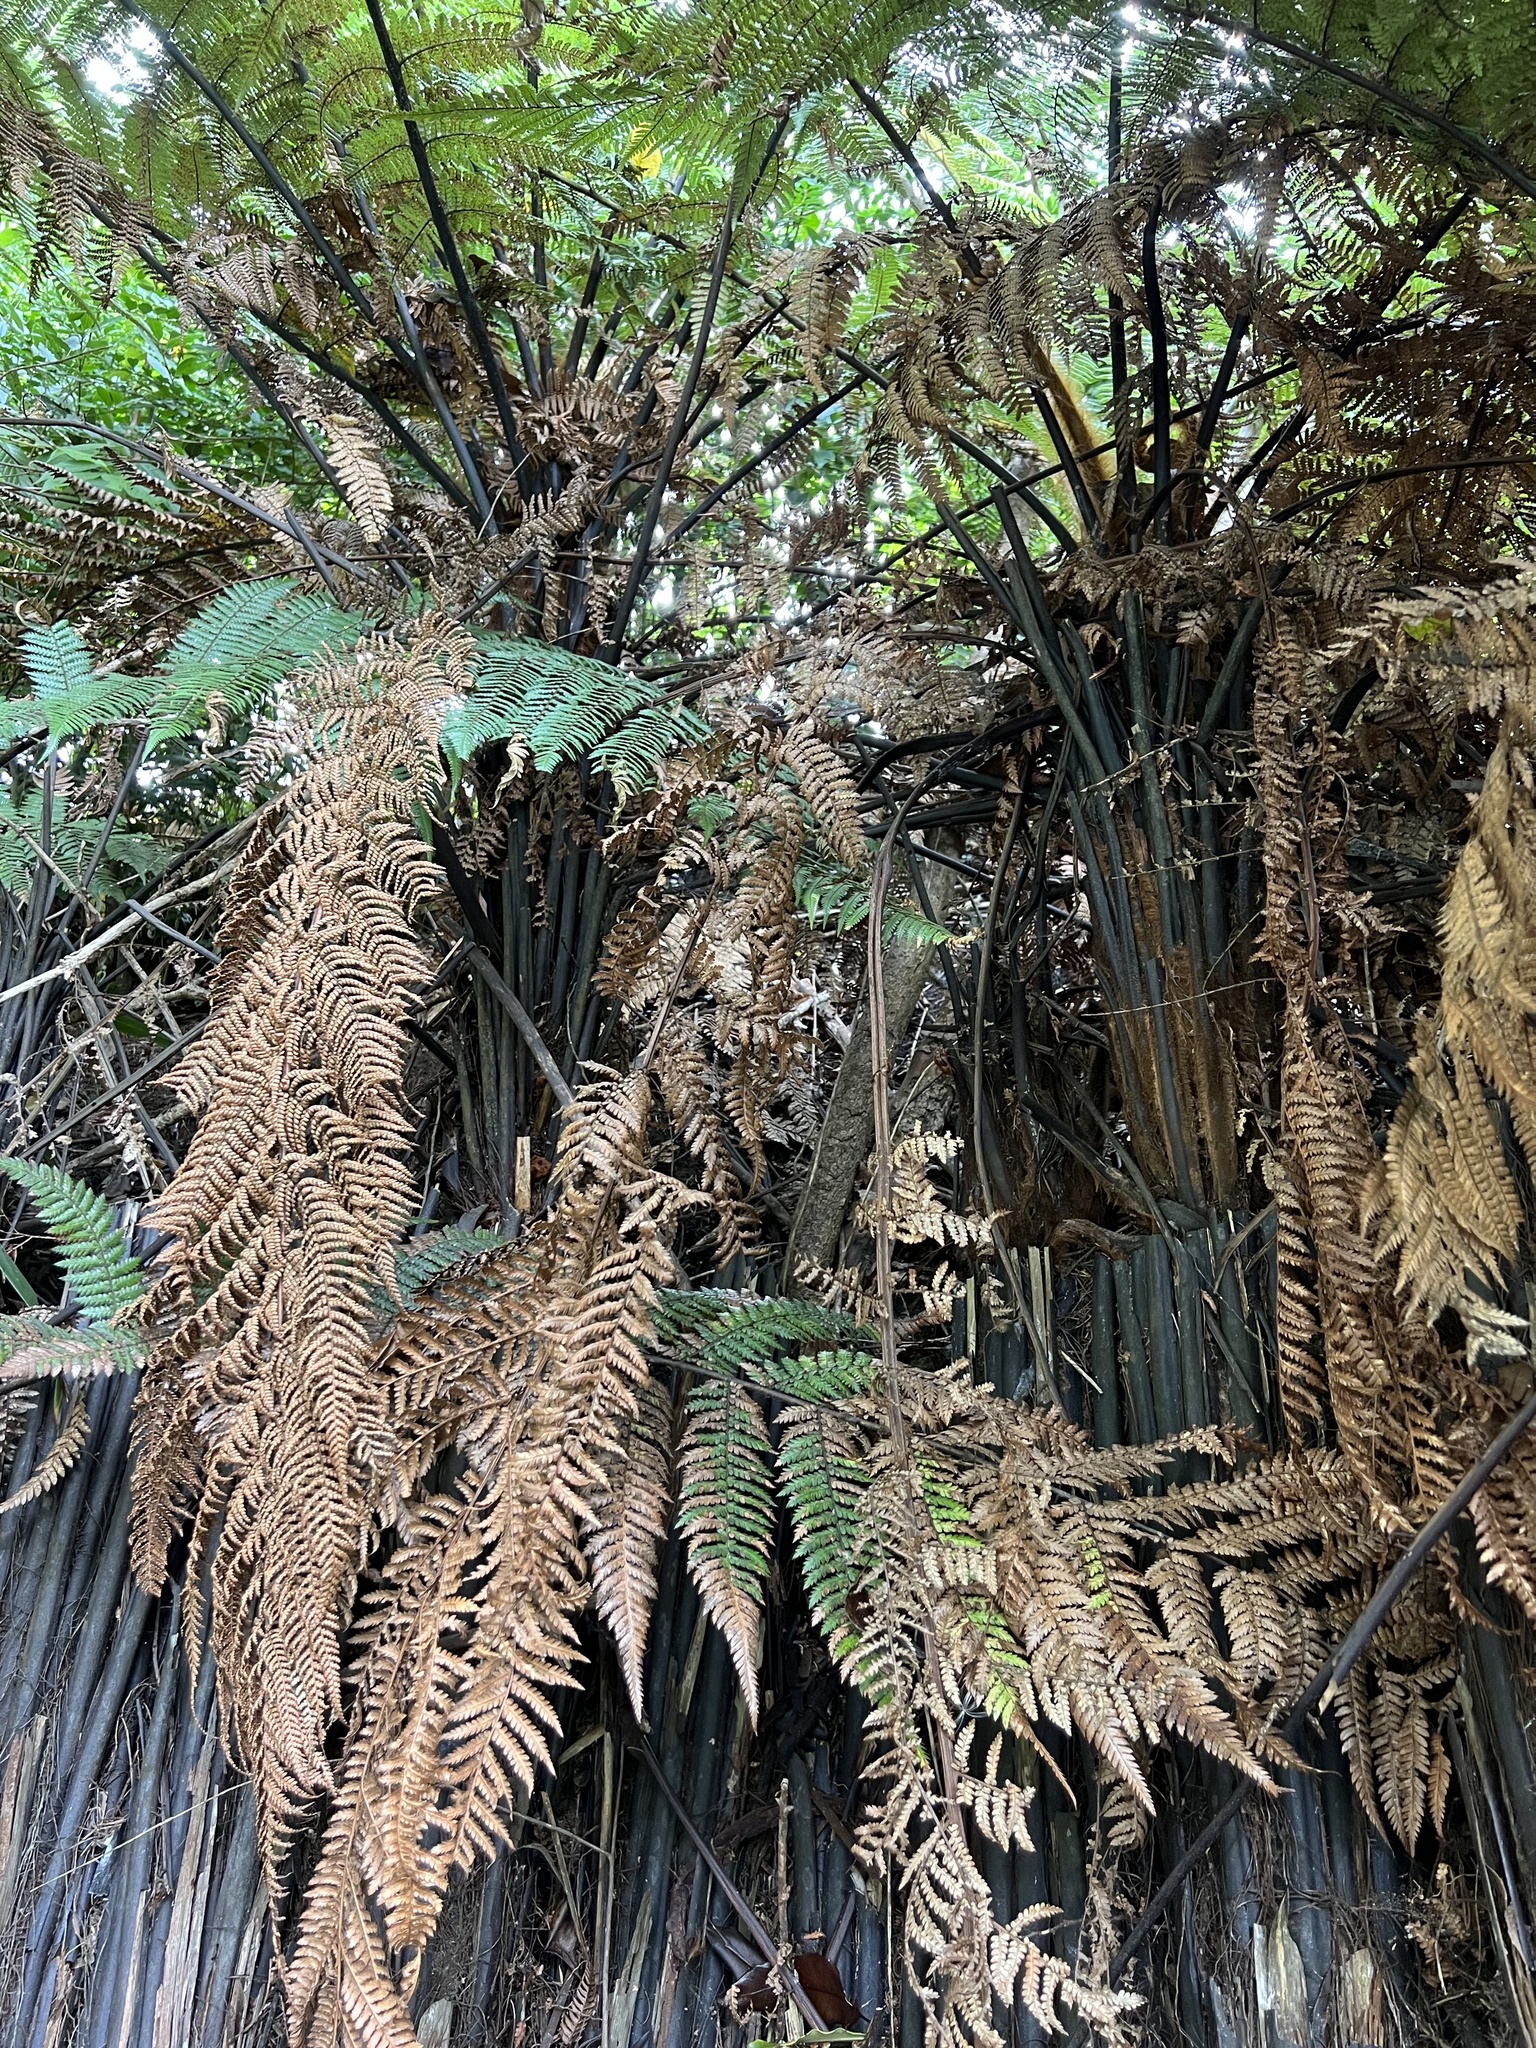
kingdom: Plantae
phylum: Tracheophyta
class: Polypodiopsida
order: Cyatheales
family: Dicksoniaceae
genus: Dicksonia
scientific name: Dicksonia squarrosa
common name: Hard treefern
